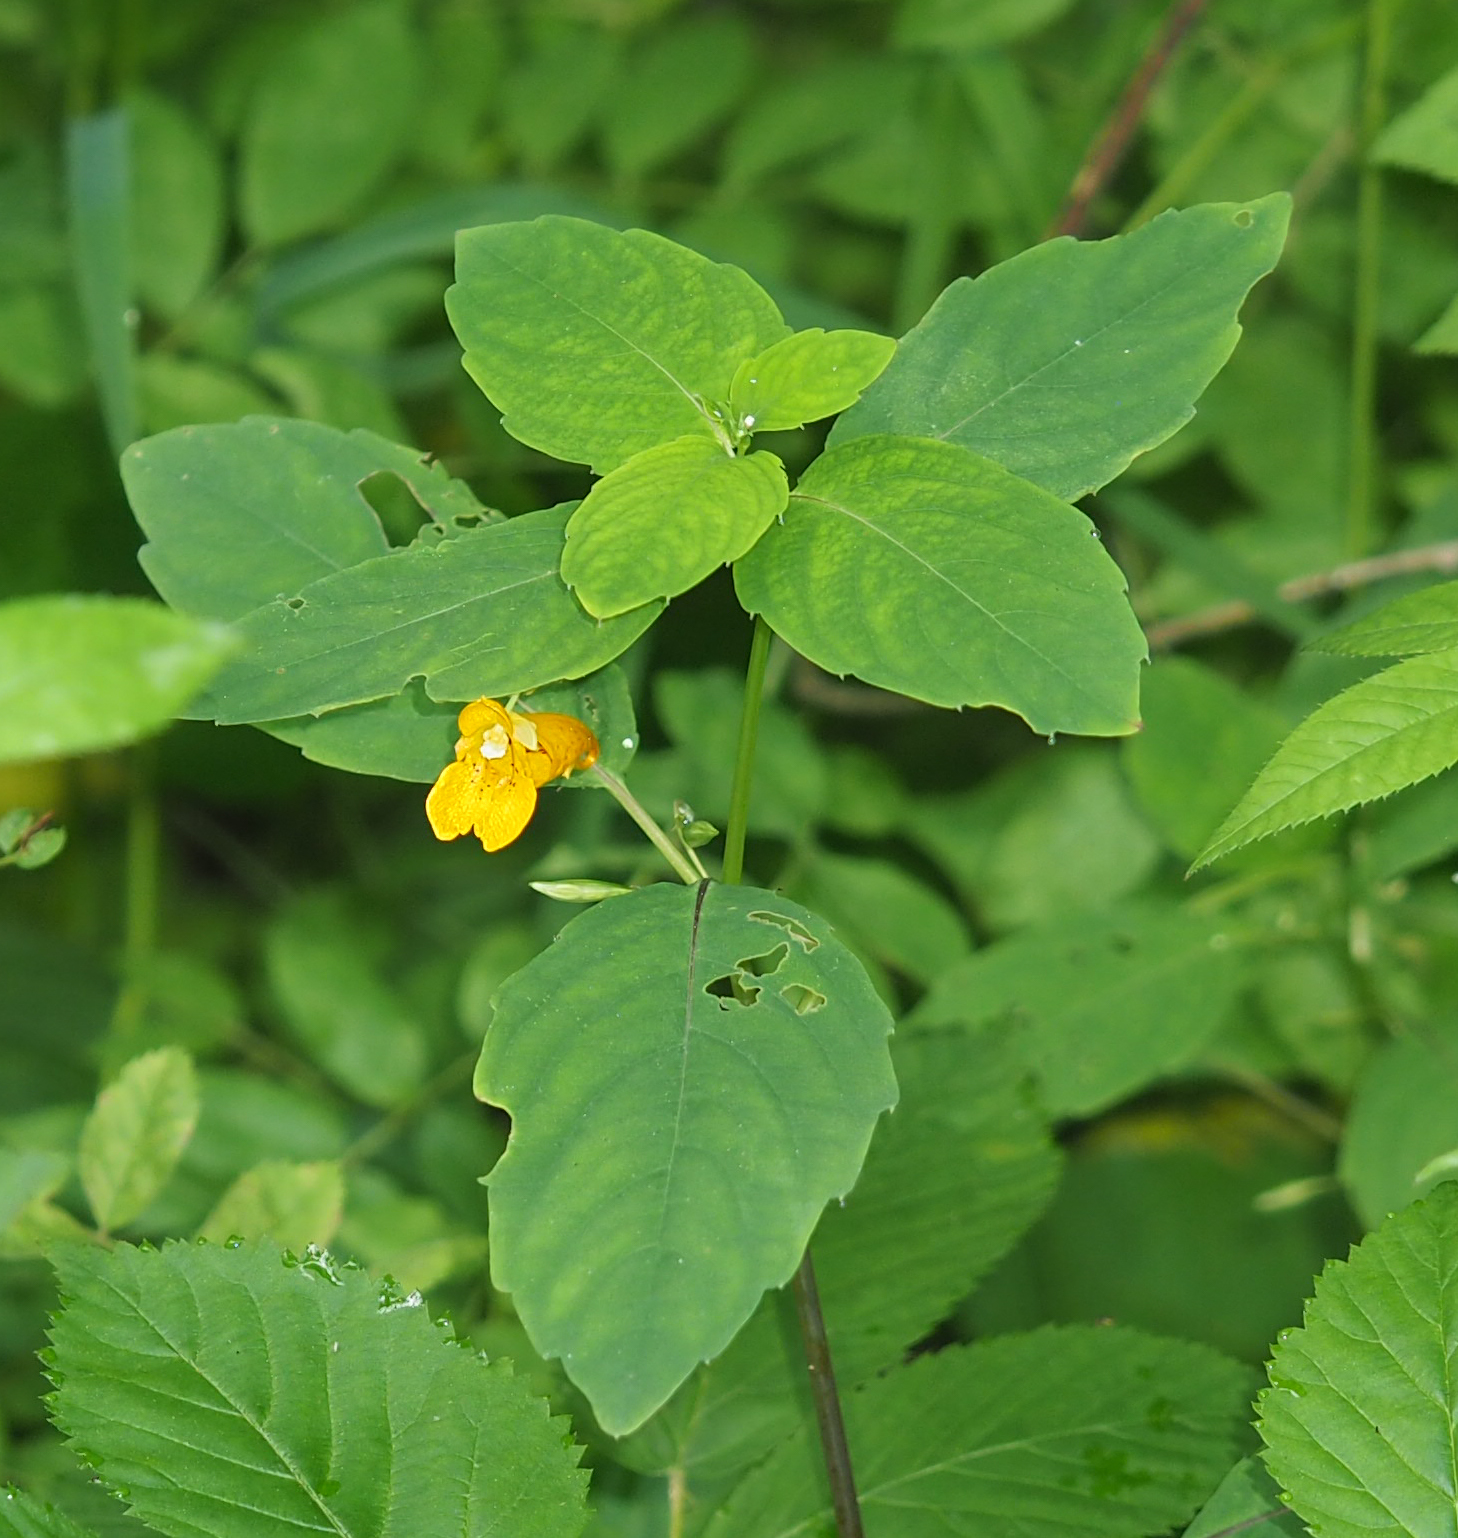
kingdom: Plantae
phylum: Tracheophyta
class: Magnoliopsida
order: Ericales
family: Balsaminaceae
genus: Impatiens
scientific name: Impatiens capensis
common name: Orange balsam
